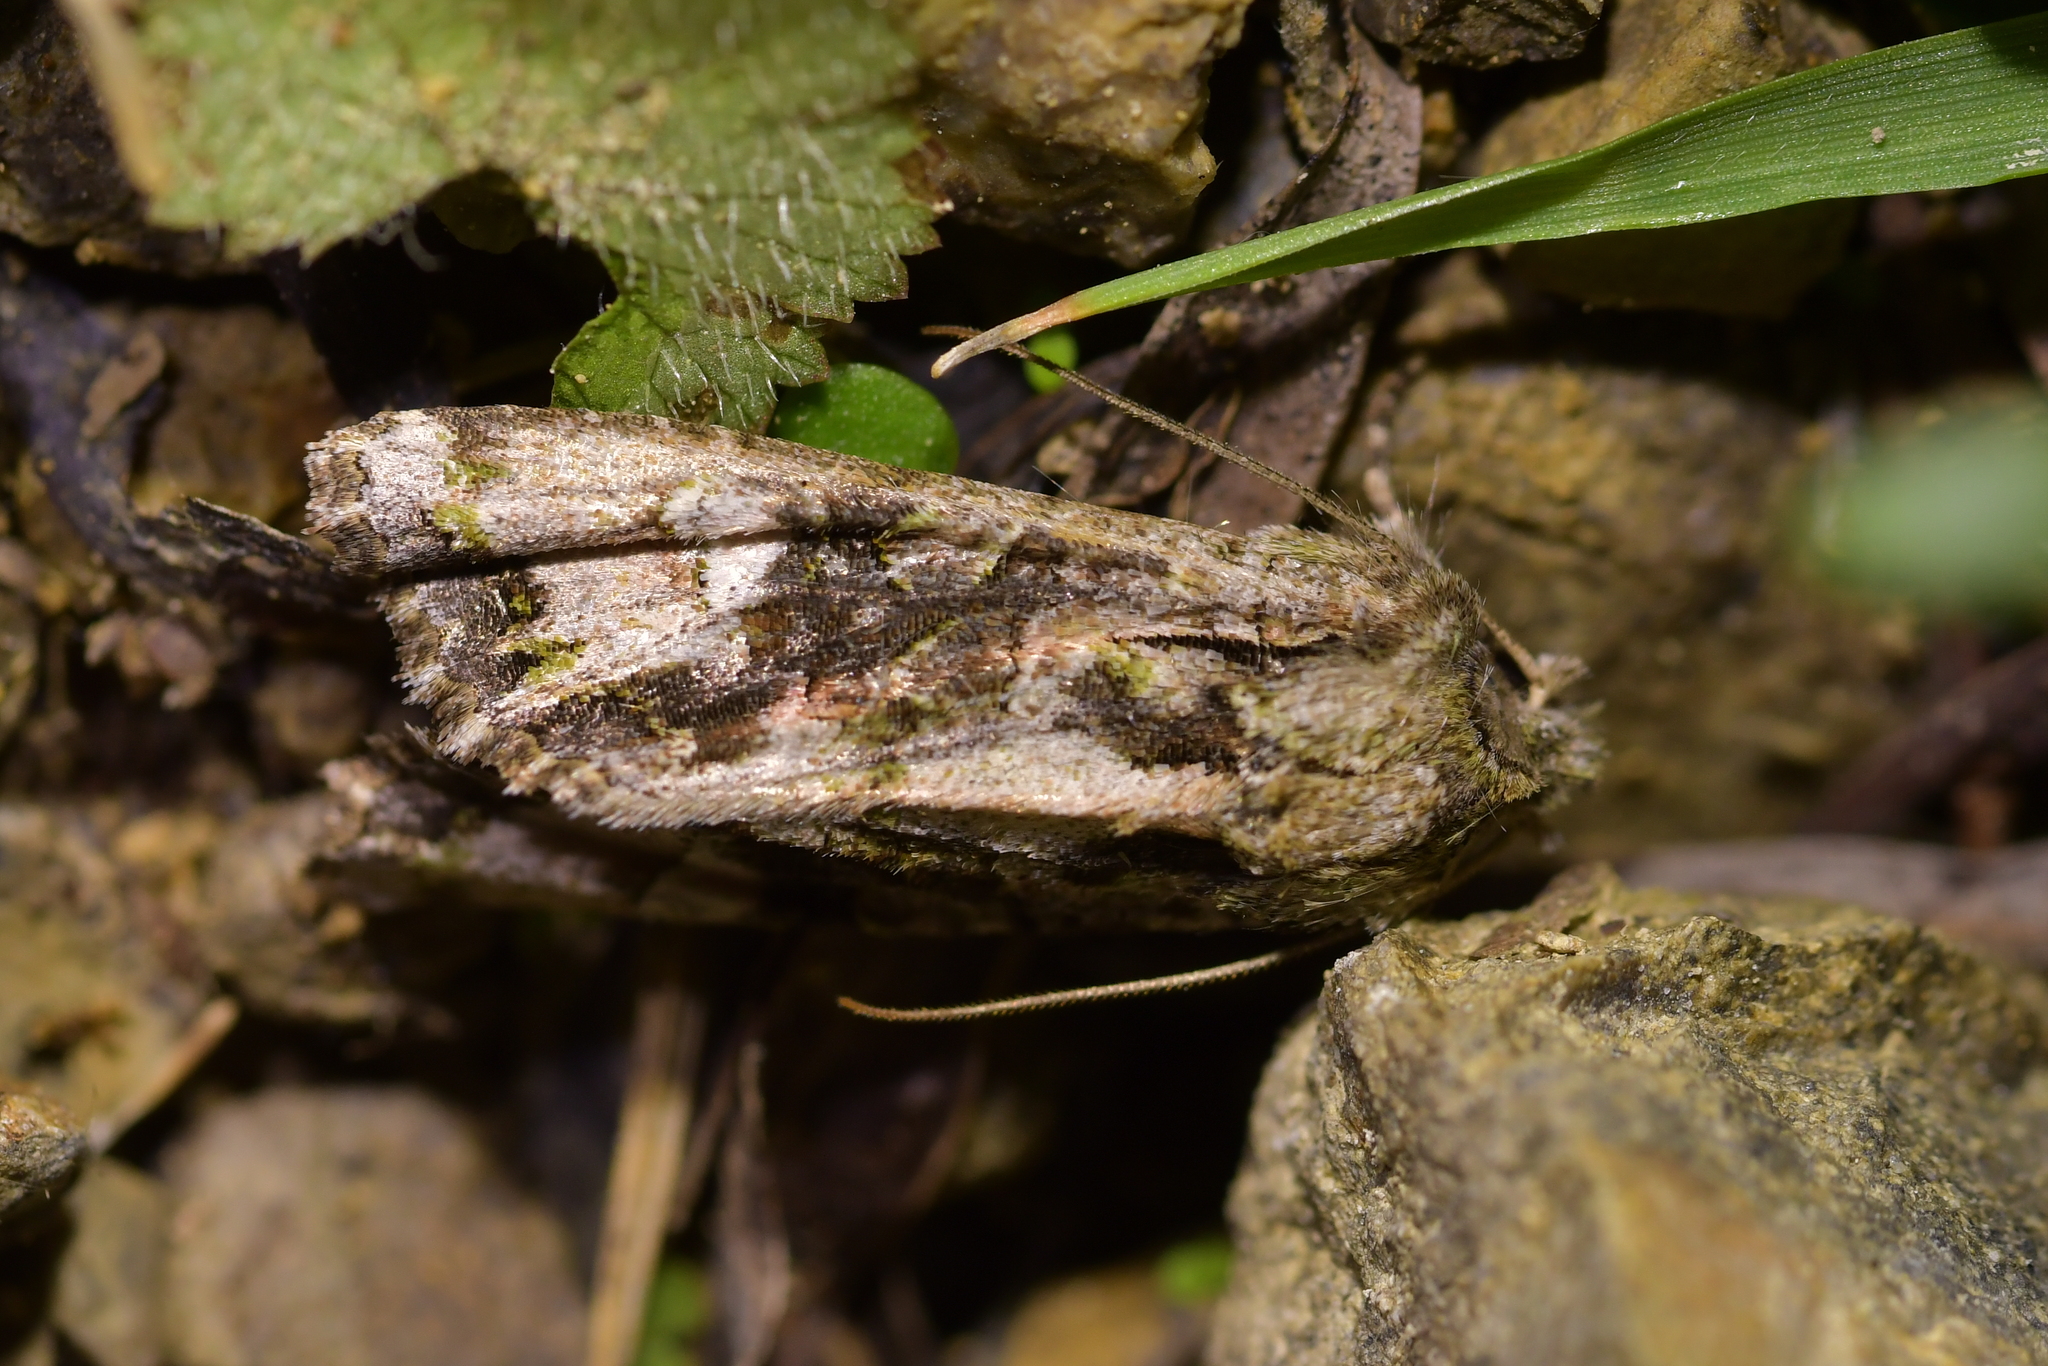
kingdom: Animalia
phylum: Arthropoda
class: Insecta
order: Lepidoptera
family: Noctuidae
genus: Ichneutica
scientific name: Ichneutica insignis
